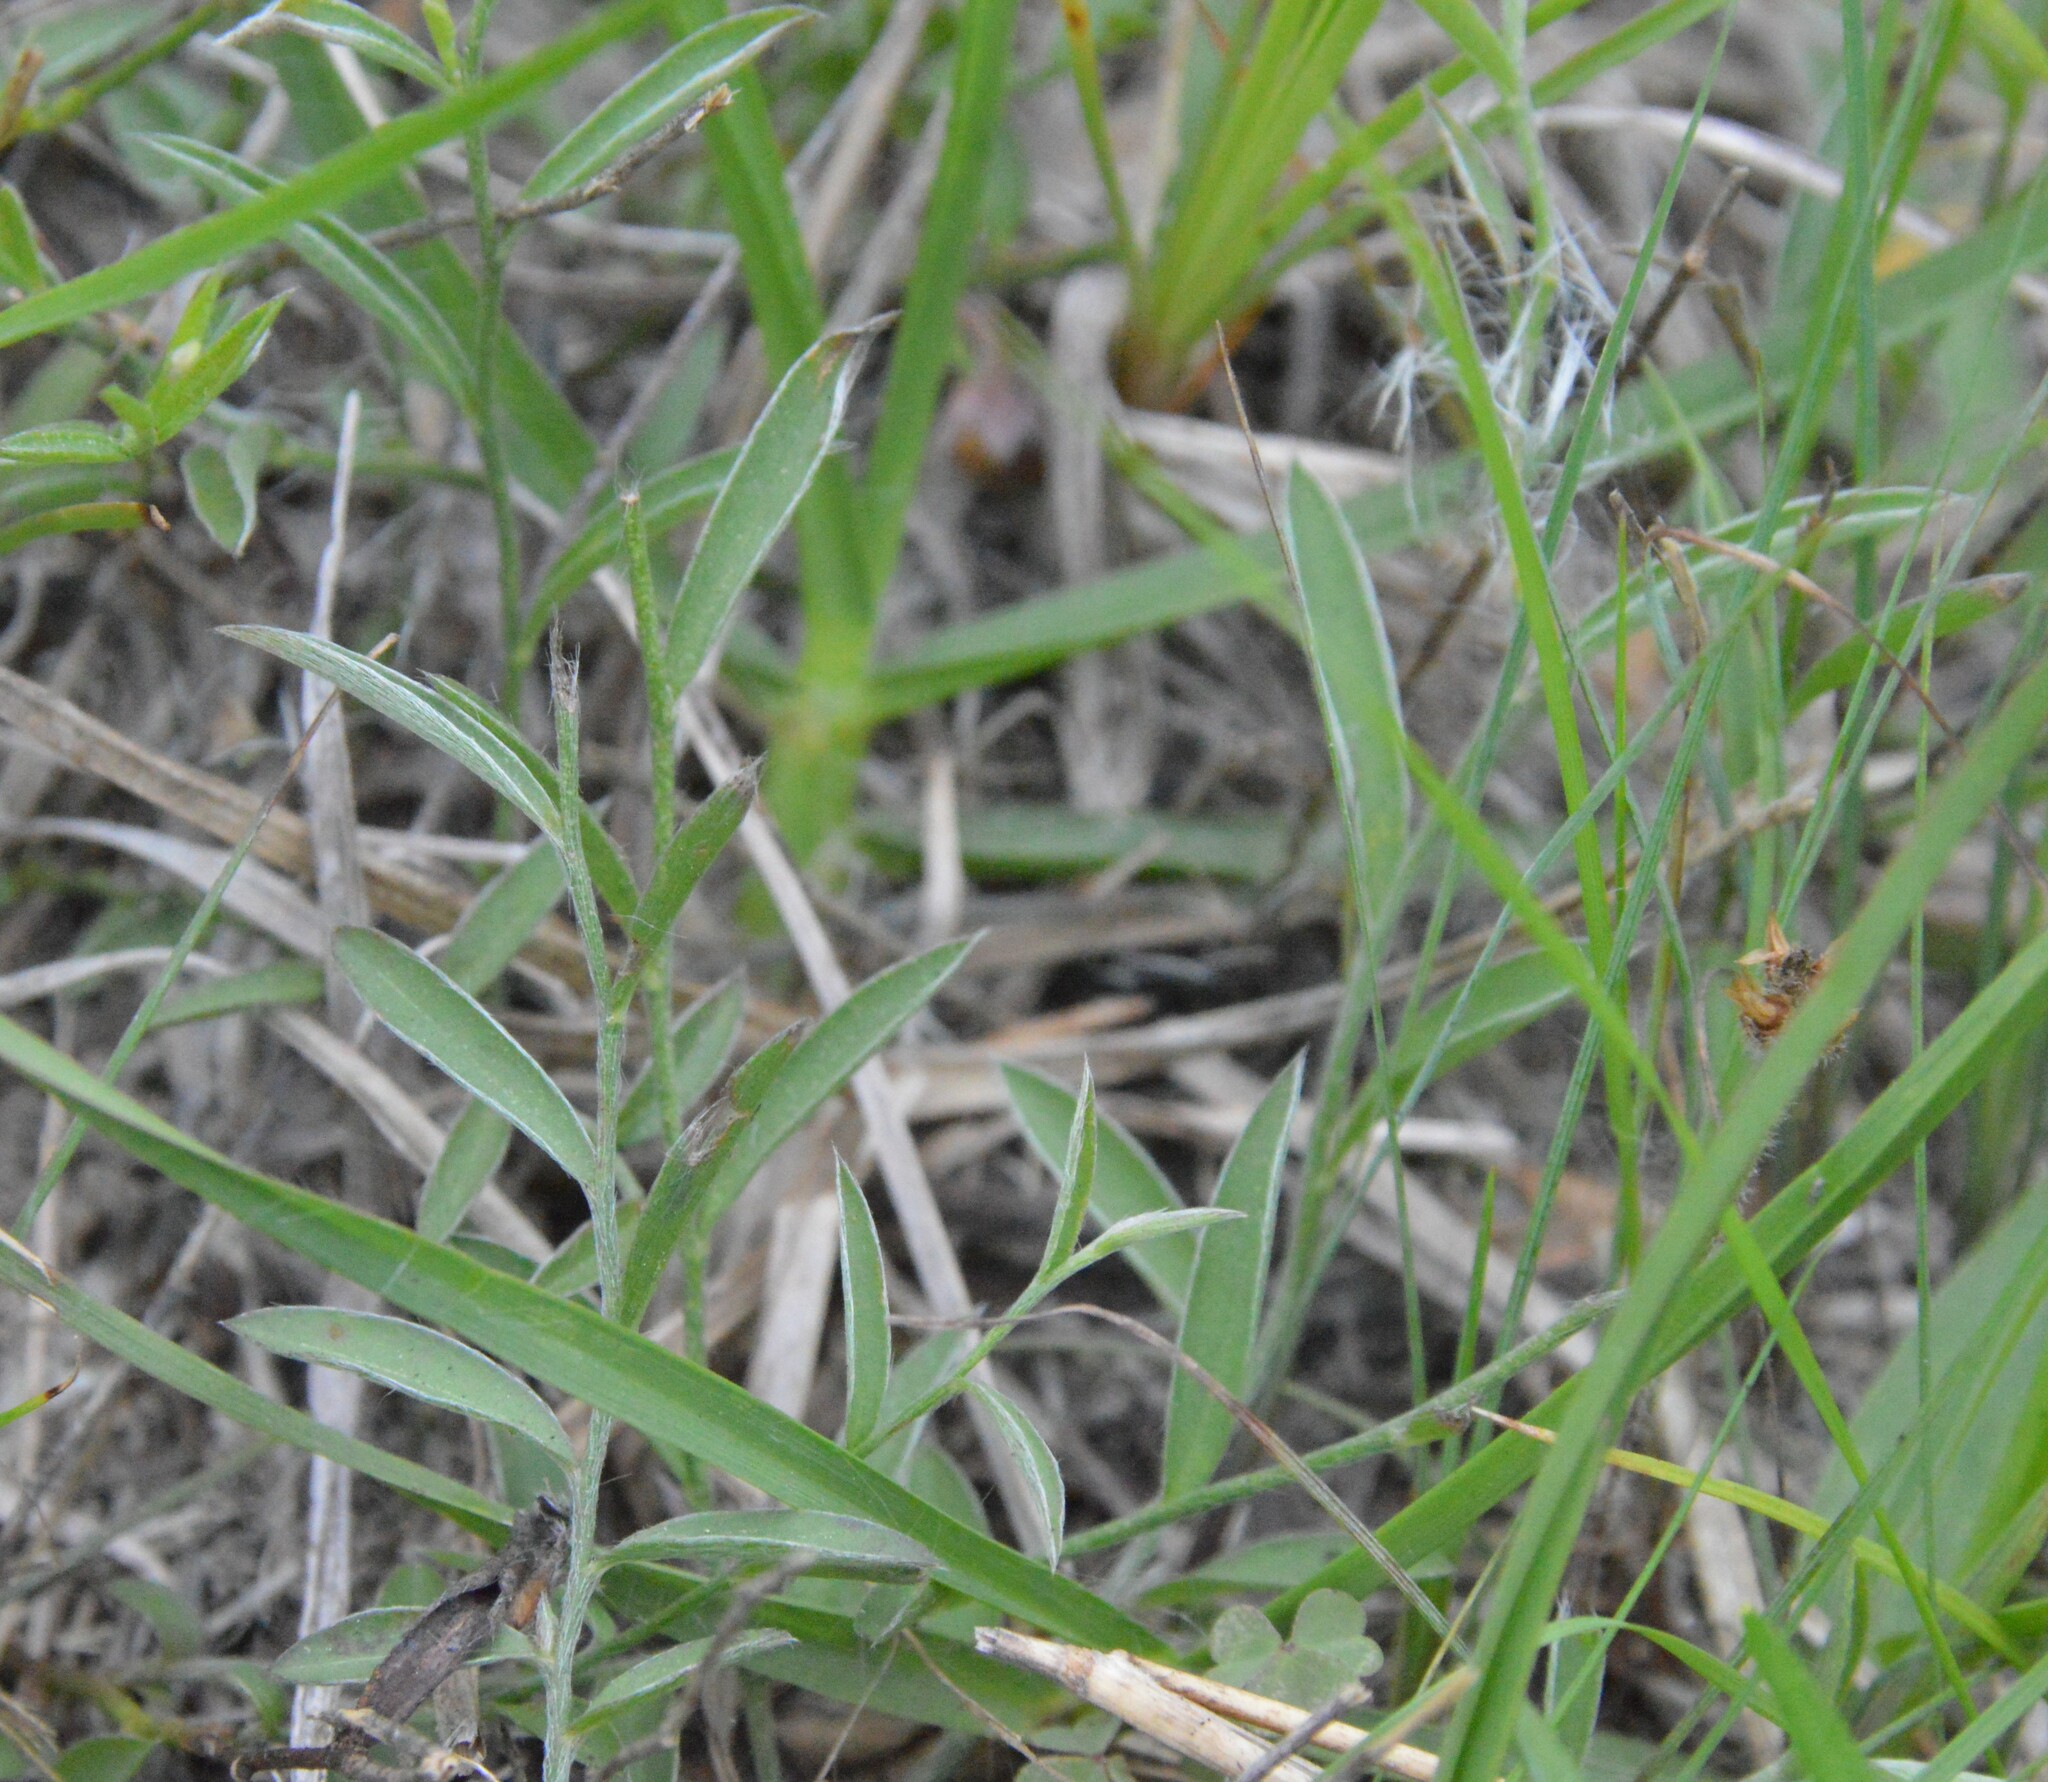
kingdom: Plantae
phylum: Tracheophyta
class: Magnoliopsida
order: Solanales
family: Convolvulaceae
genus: Evolvulus
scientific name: Evolvulus sericeus
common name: Blue dots
